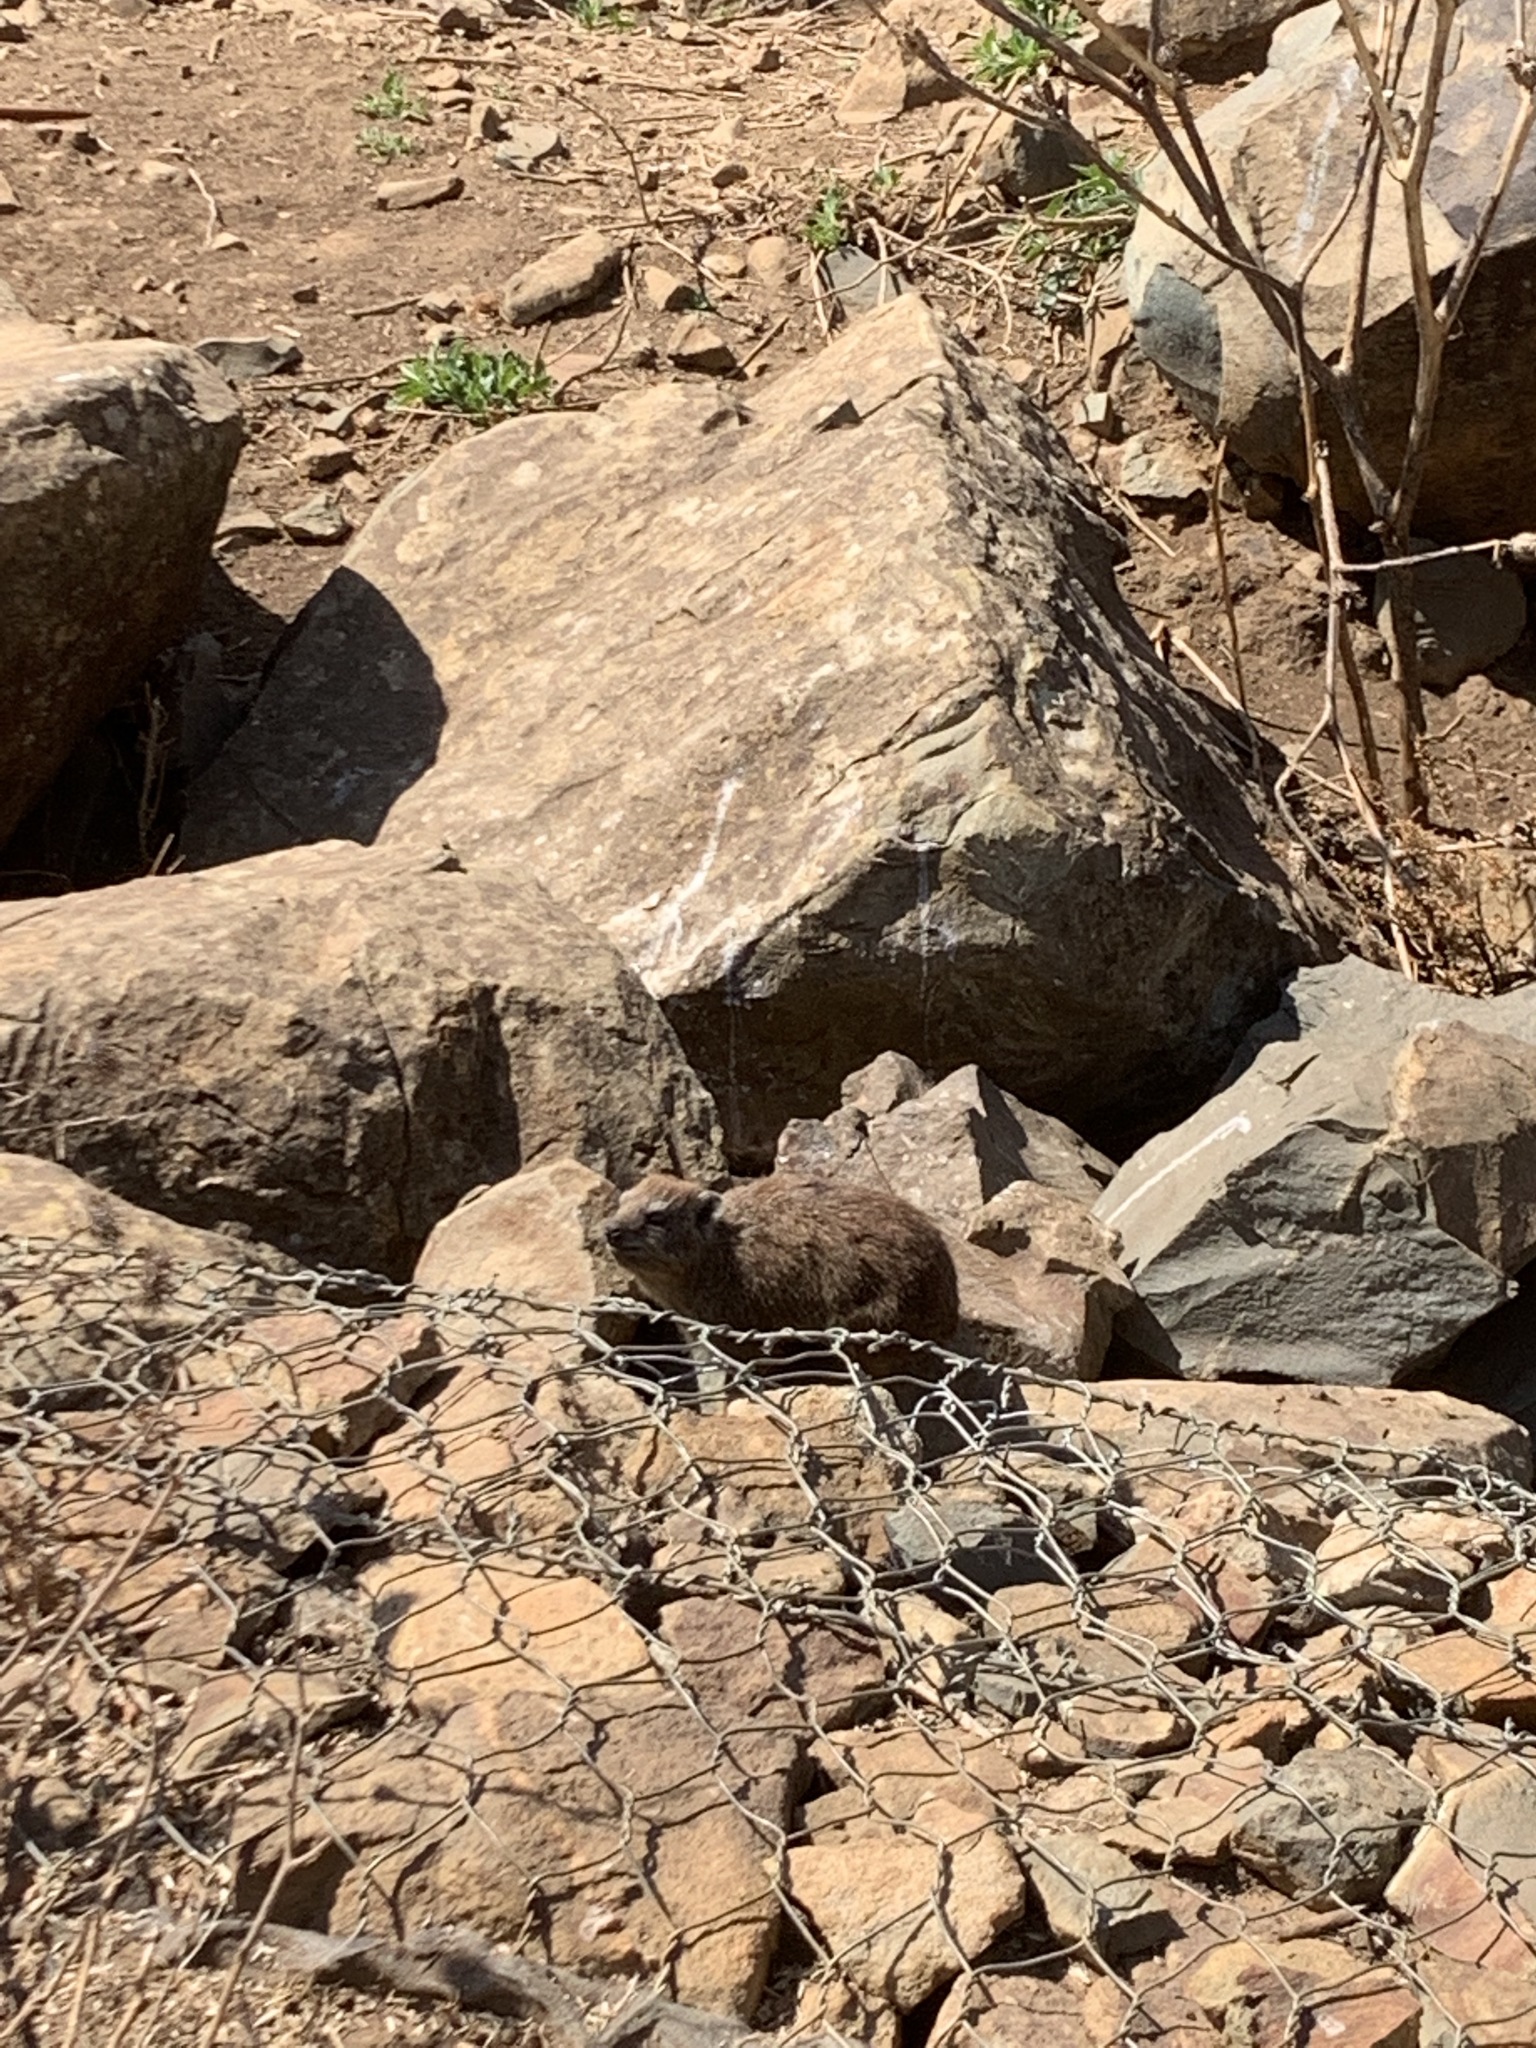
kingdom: Animalia
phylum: Chordata
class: Mammalia
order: Hyracoidea
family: Procaviidae
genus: Procavia
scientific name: Procavia capensis
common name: Rock hyrax
